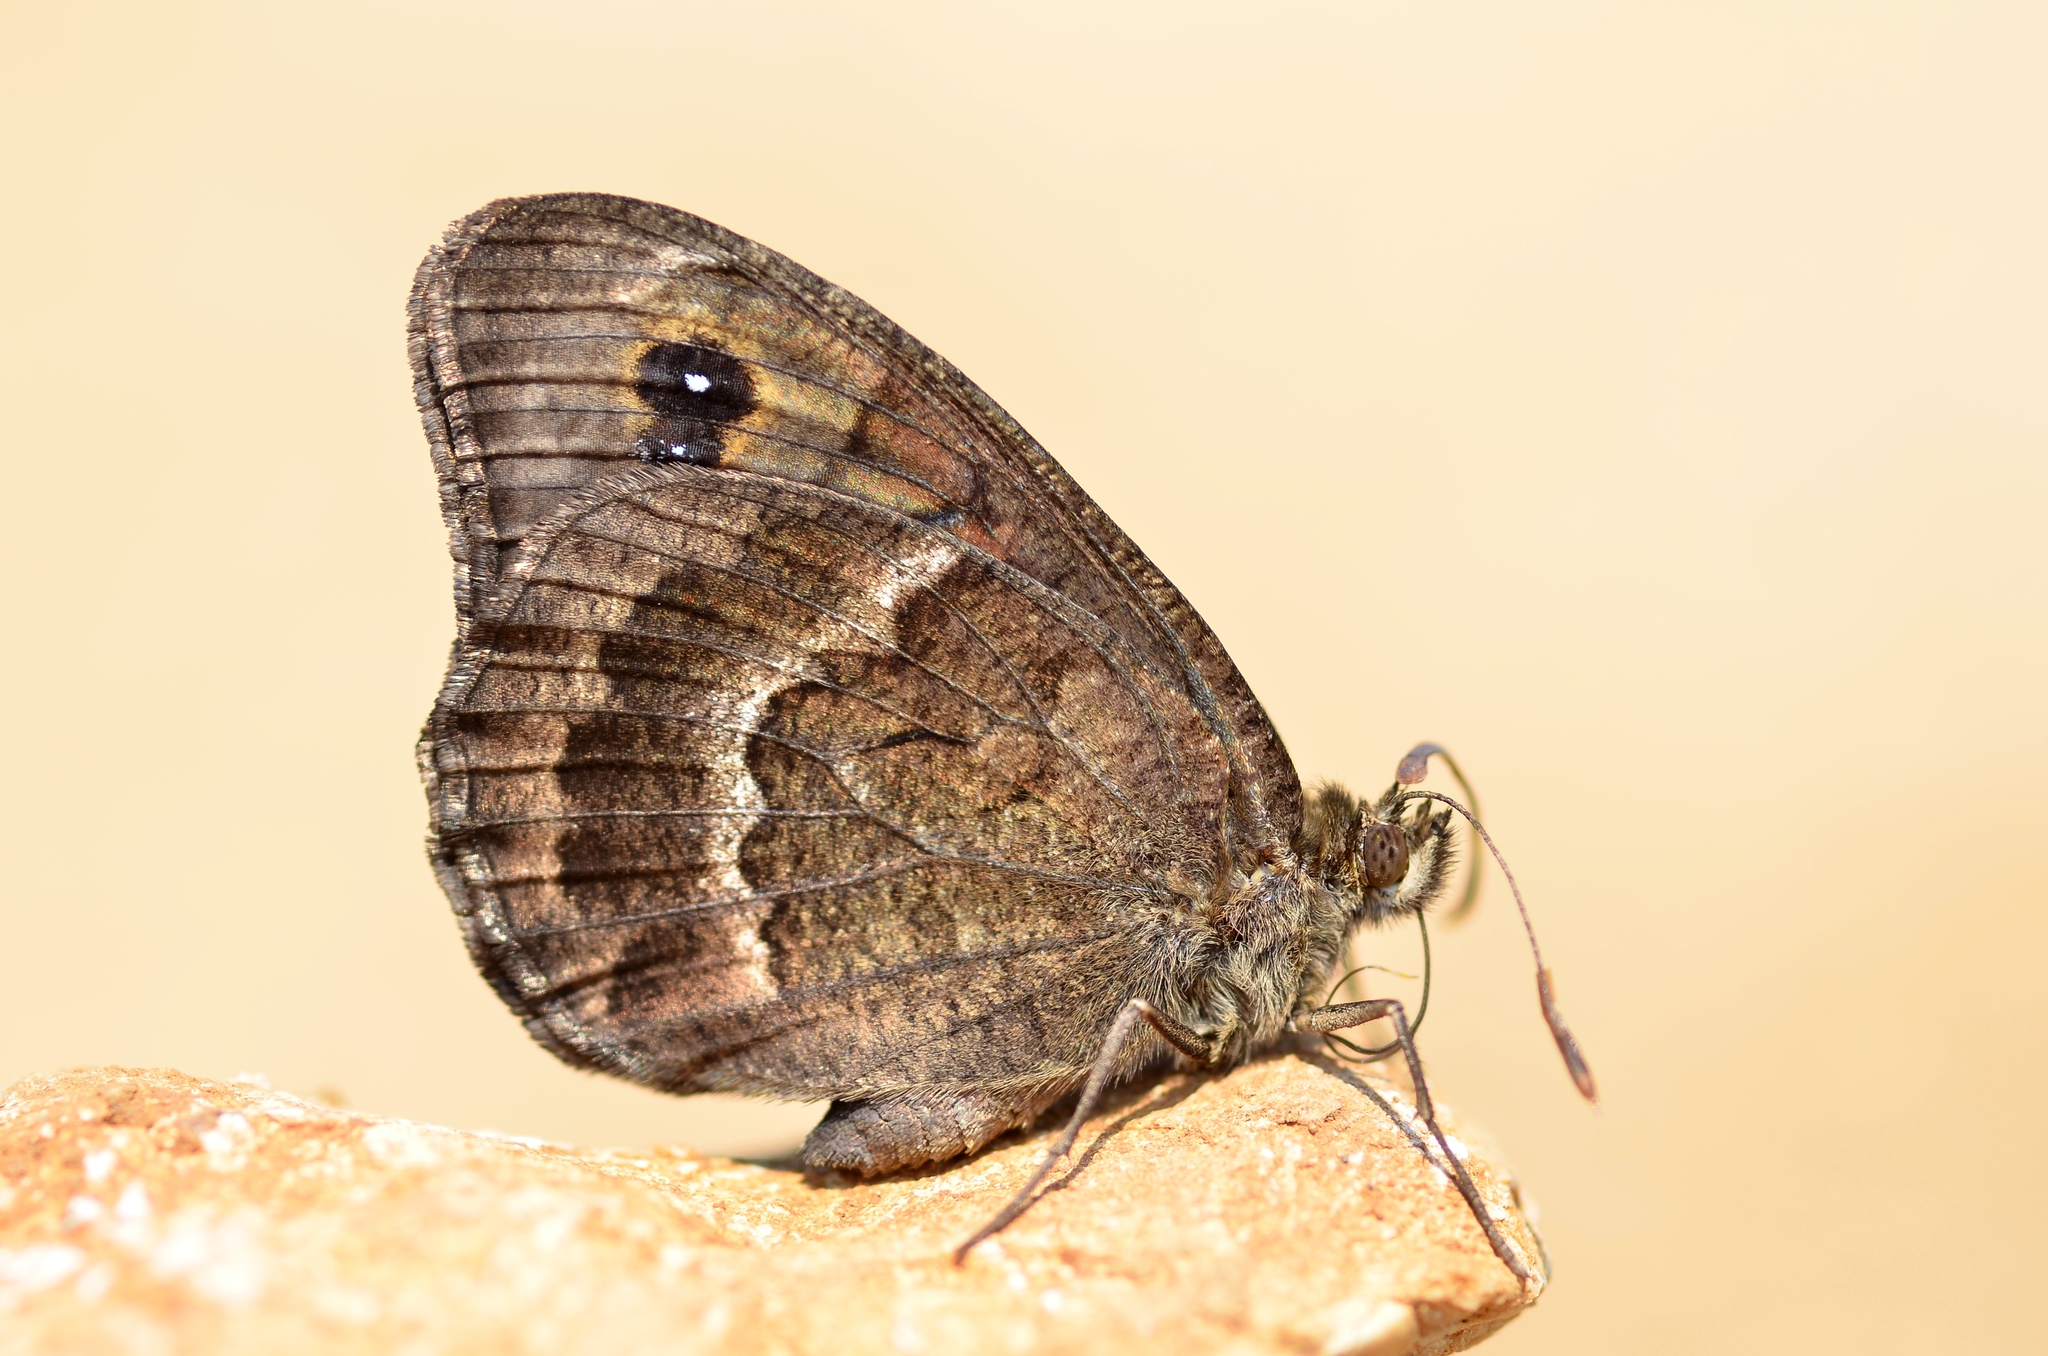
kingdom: Animalia
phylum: Arthropoda
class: Insecta
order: Lepidoptera
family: Nymphalidae
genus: Satyrus
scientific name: Satyrus actaea
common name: Black satyr
